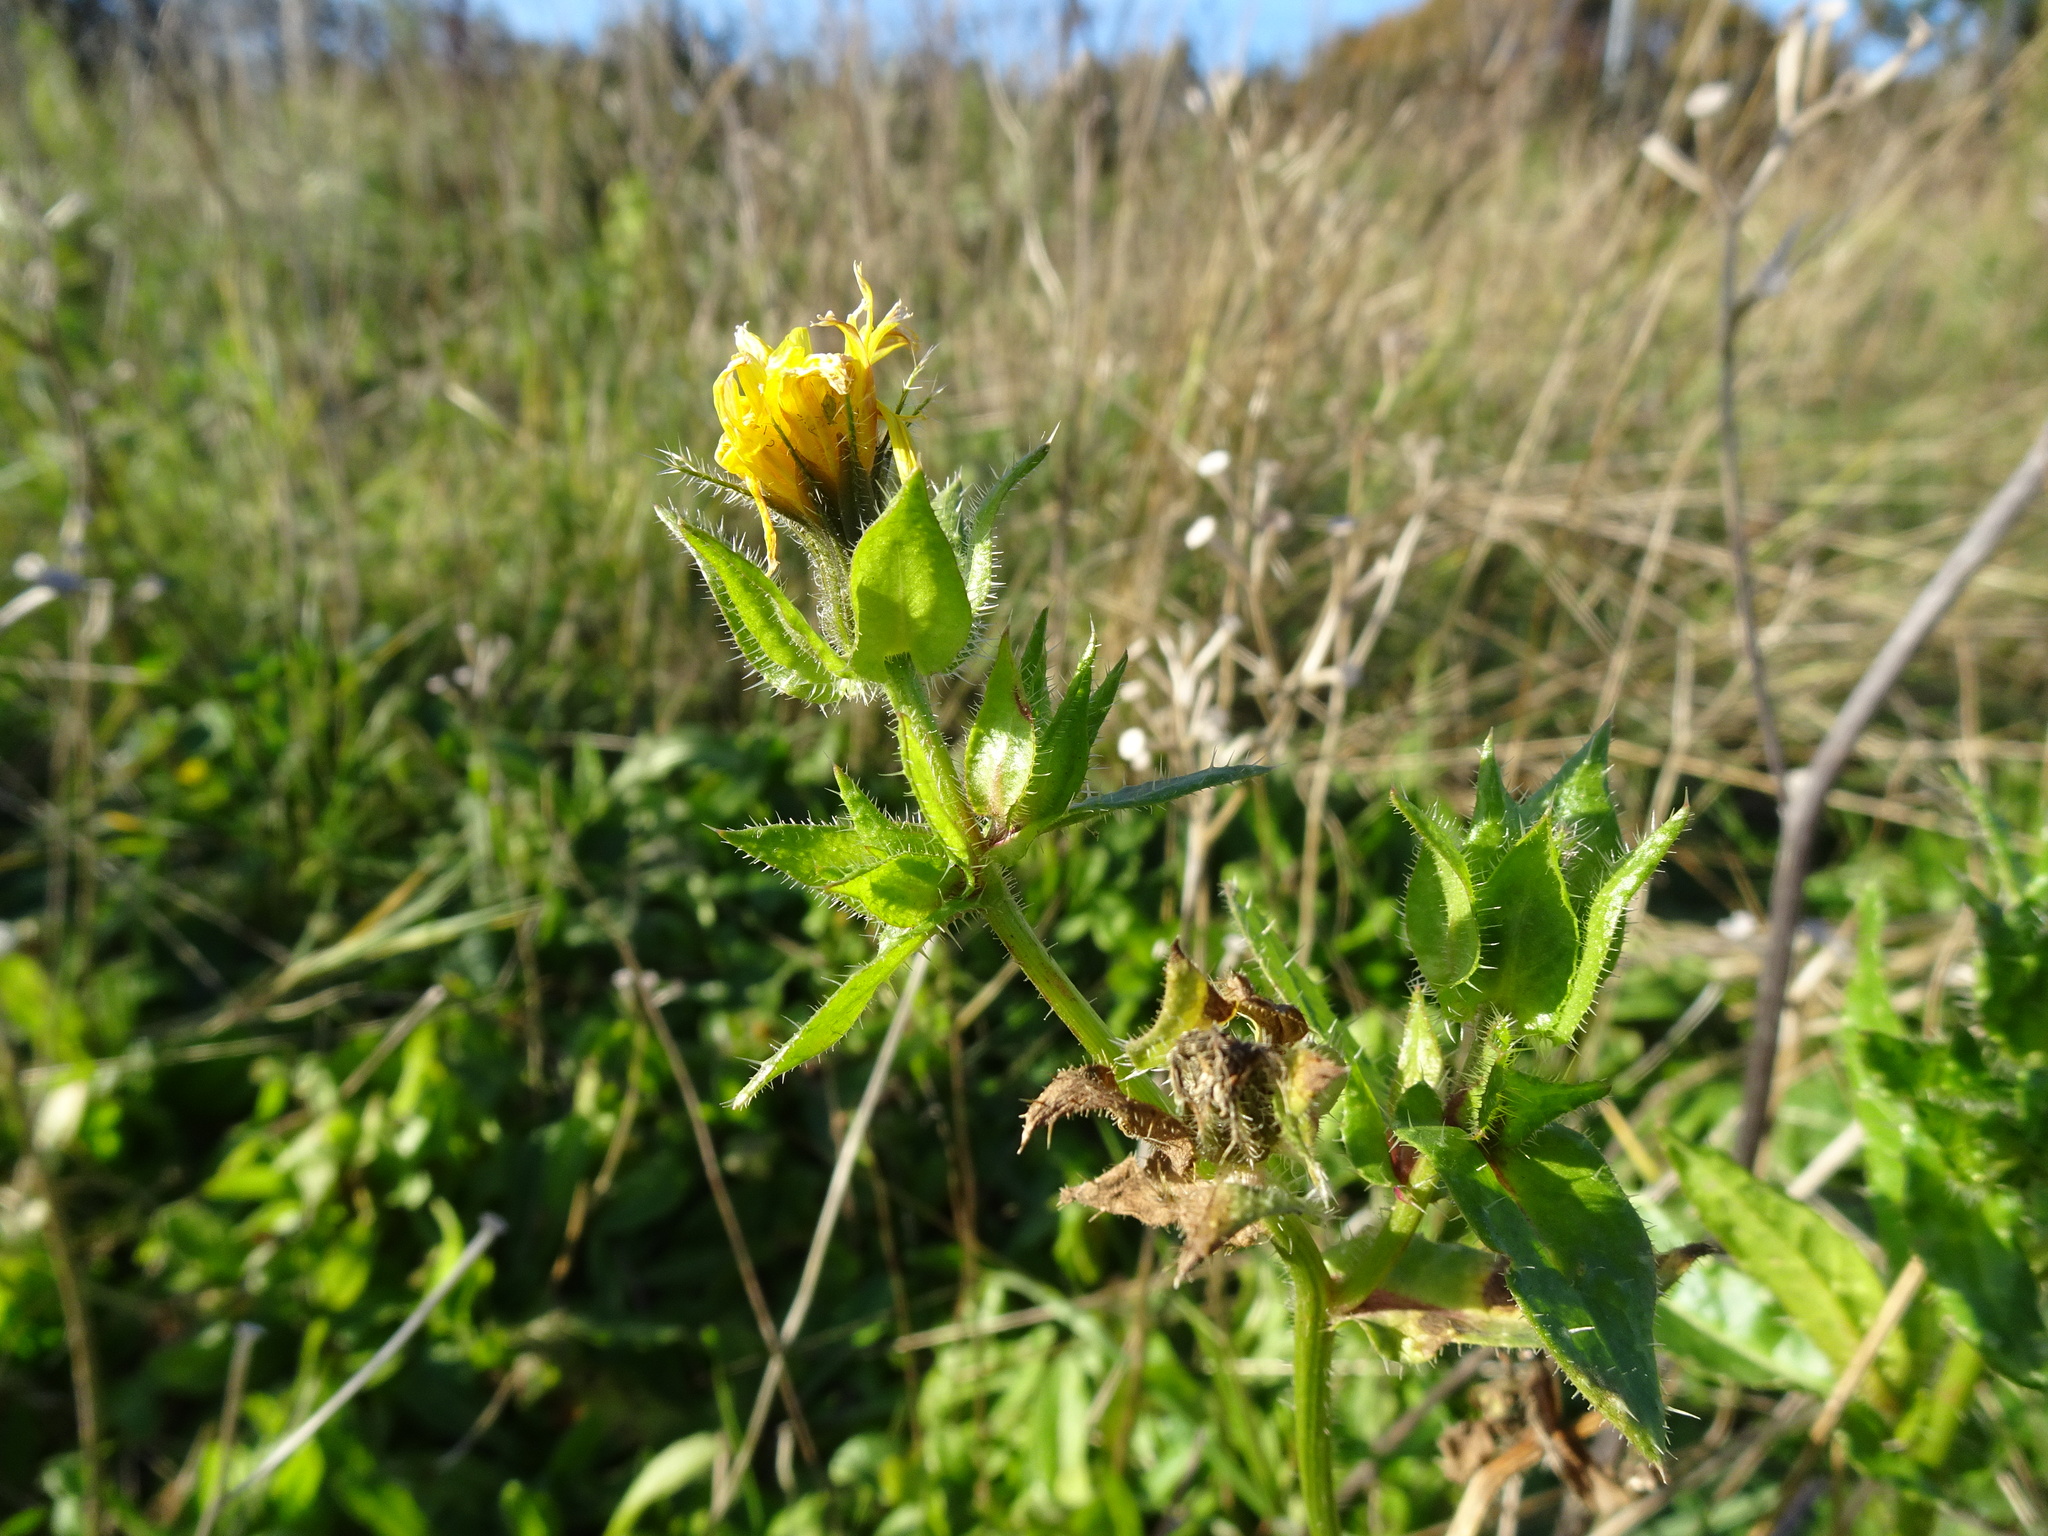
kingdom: Plantae
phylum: Tracheophyta
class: Magnoliopsida
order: Asterales
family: Asteraceae
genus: Helminthotheca
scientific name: Helminthotheca echioides
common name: Ox-tongue
